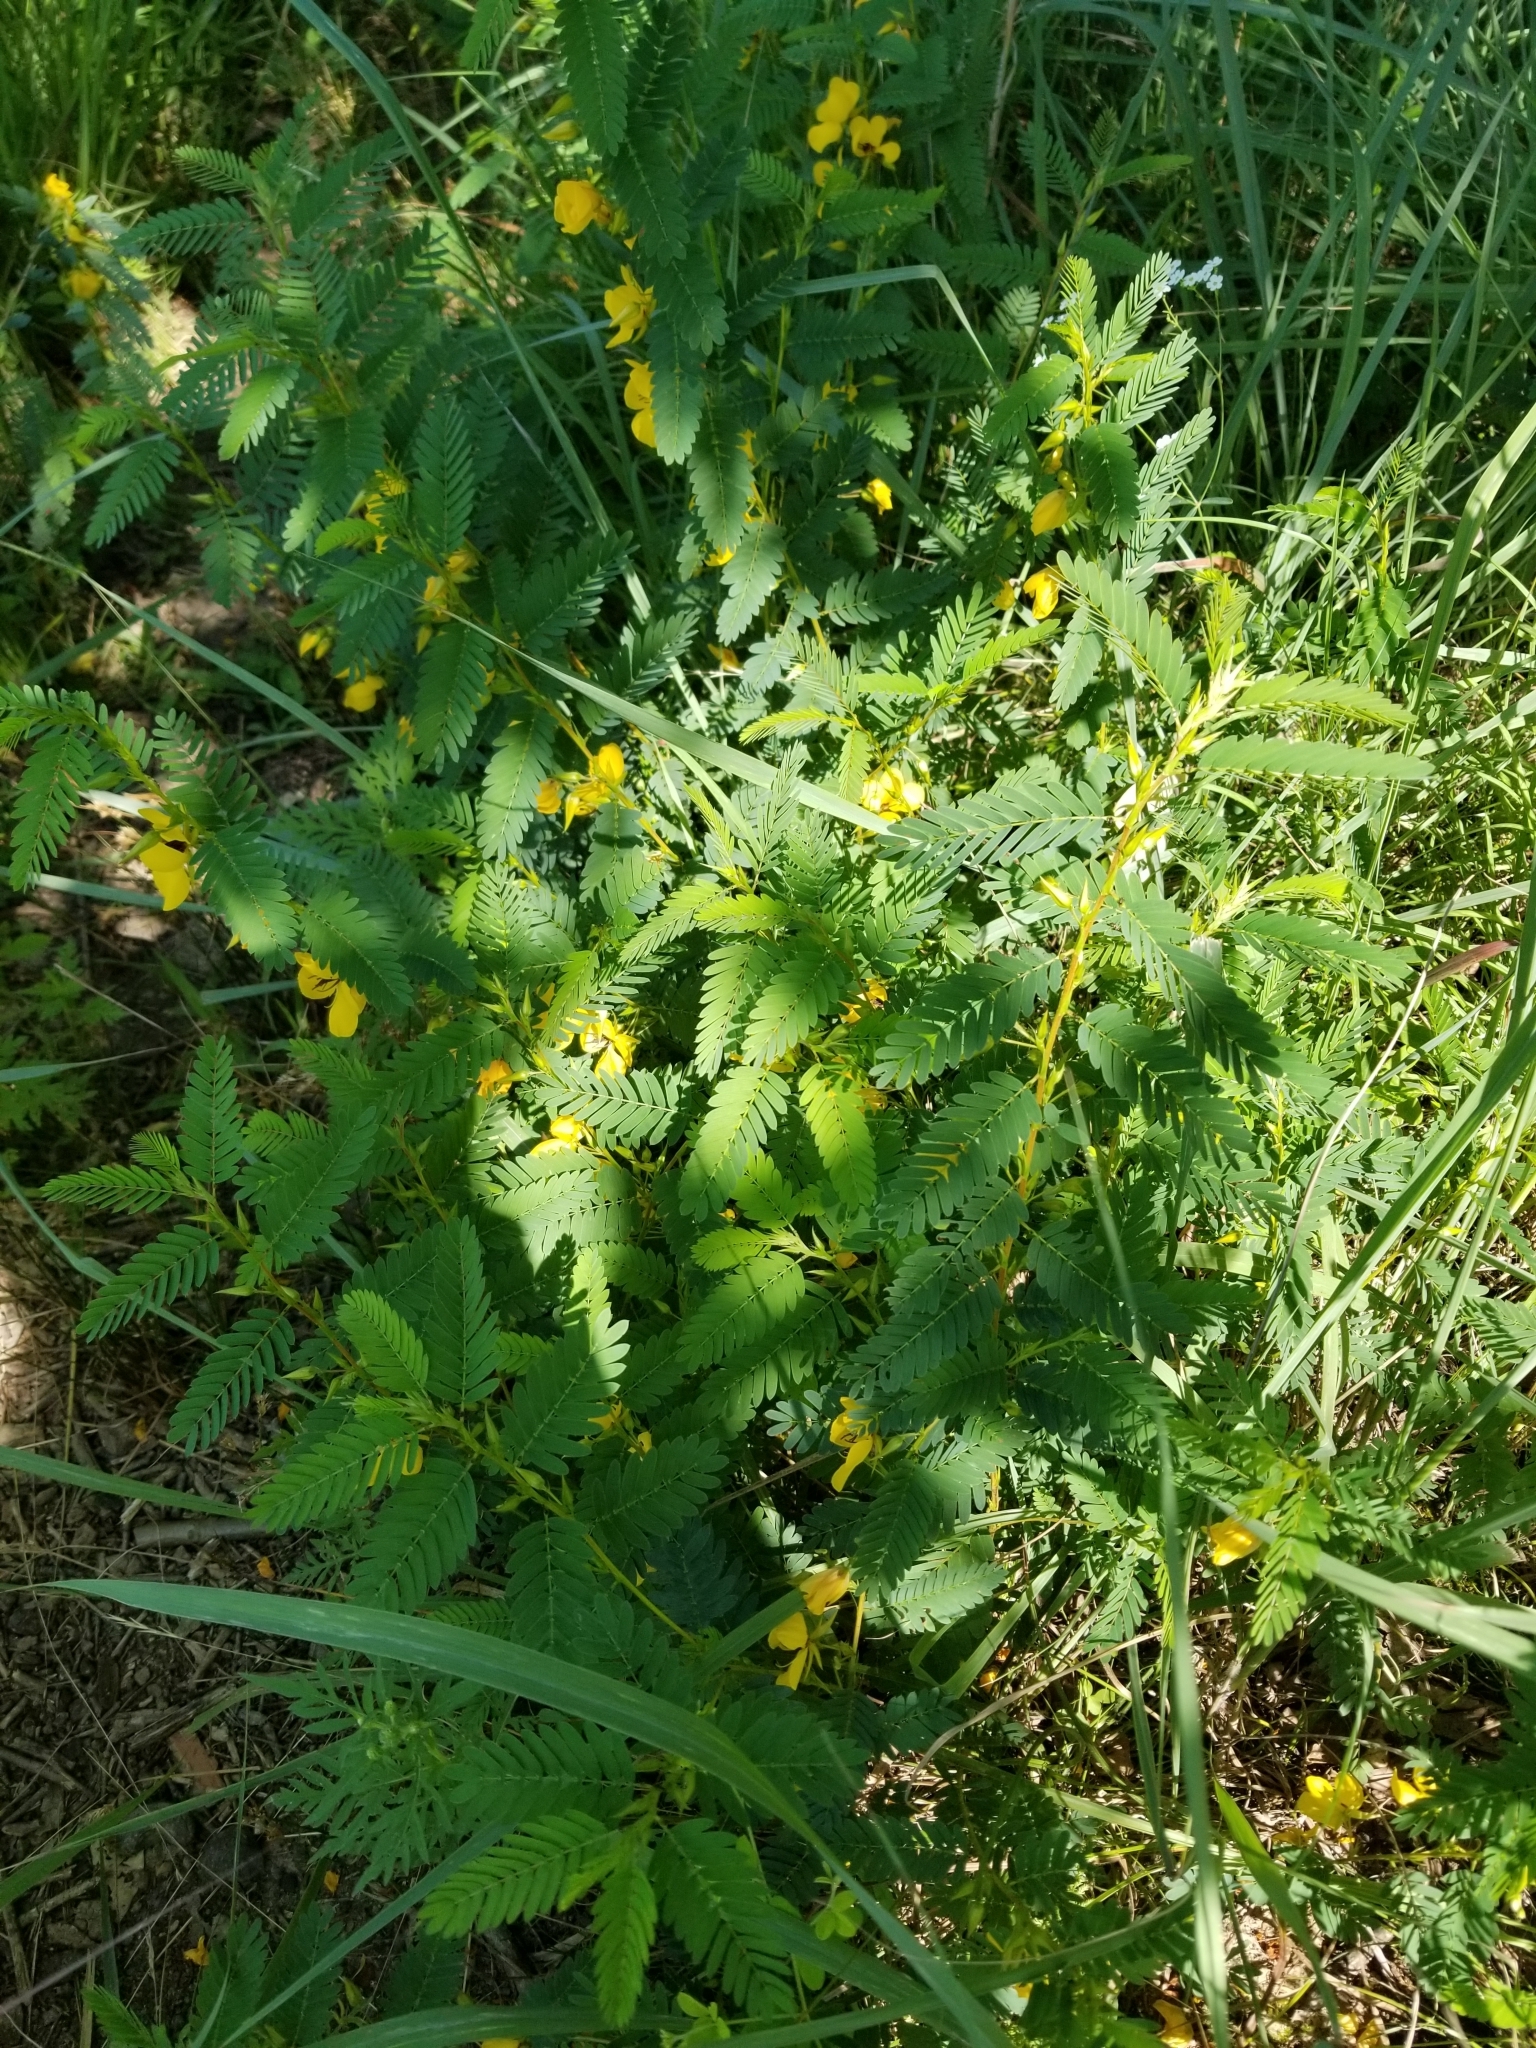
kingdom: Plantae
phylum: Tracheophyta
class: Magnoliopsida
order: Fabales
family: Fabaceae
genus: Chamaecrista
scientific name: Chamaecrista fasciculata
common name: Golden cassia
